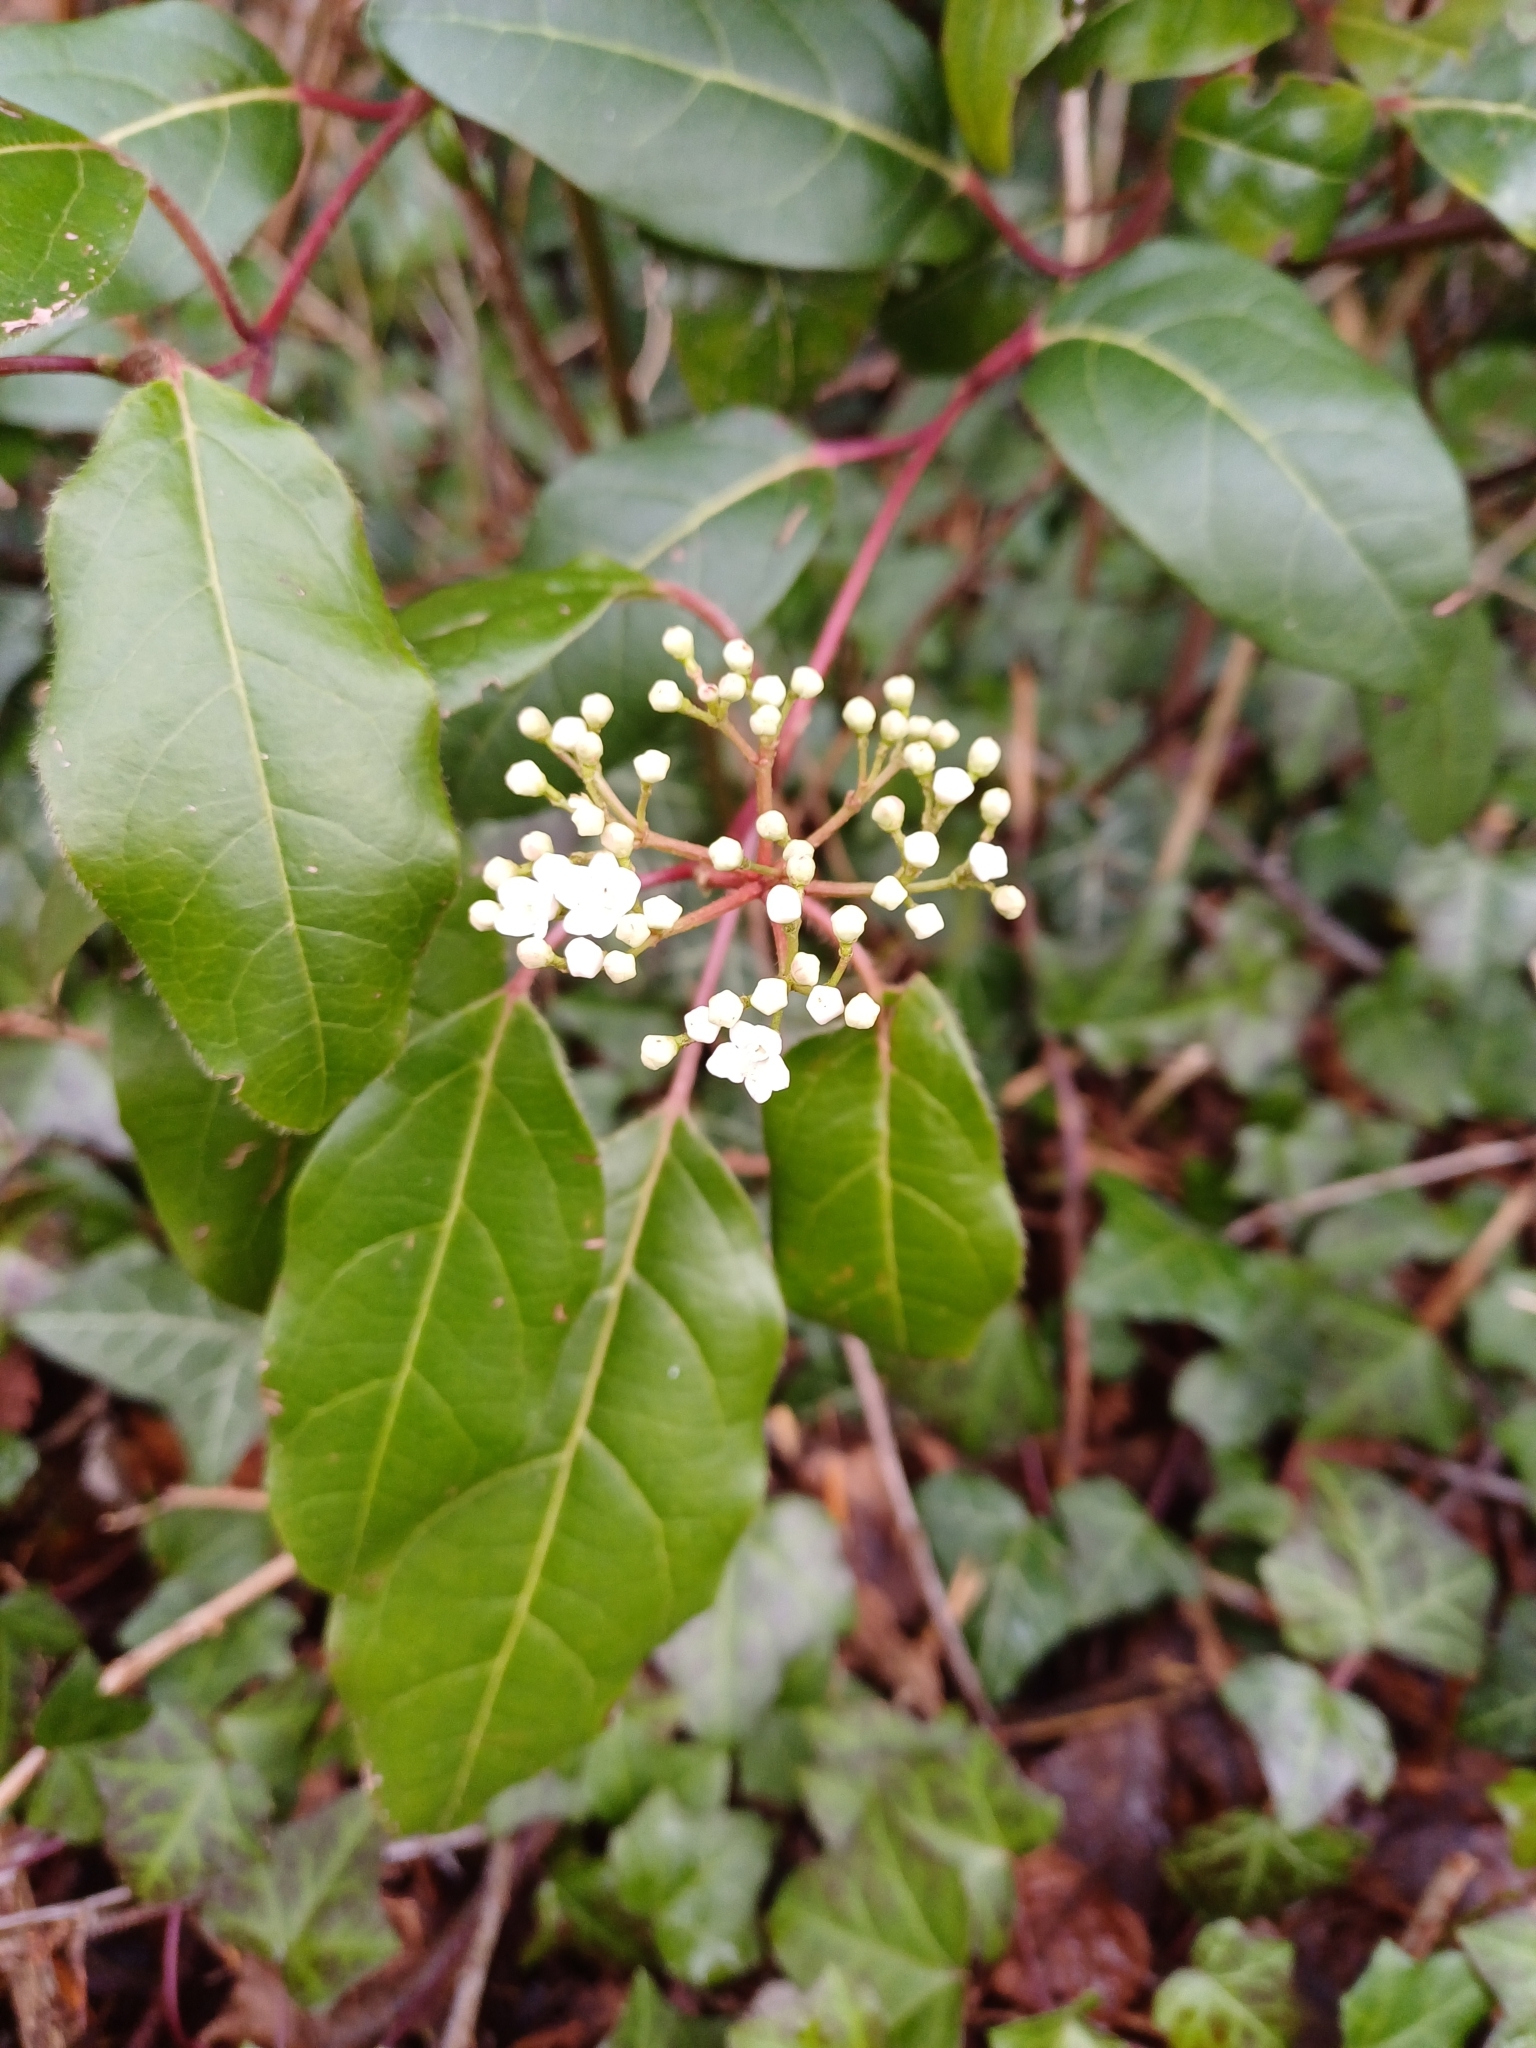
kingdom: Plantae
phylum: Tracheophyta
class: Magnoliopsida
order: Dipsacales
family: Viburnaceae
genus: Viburnum
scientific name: Viburnum tinus
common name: Laurustinus
